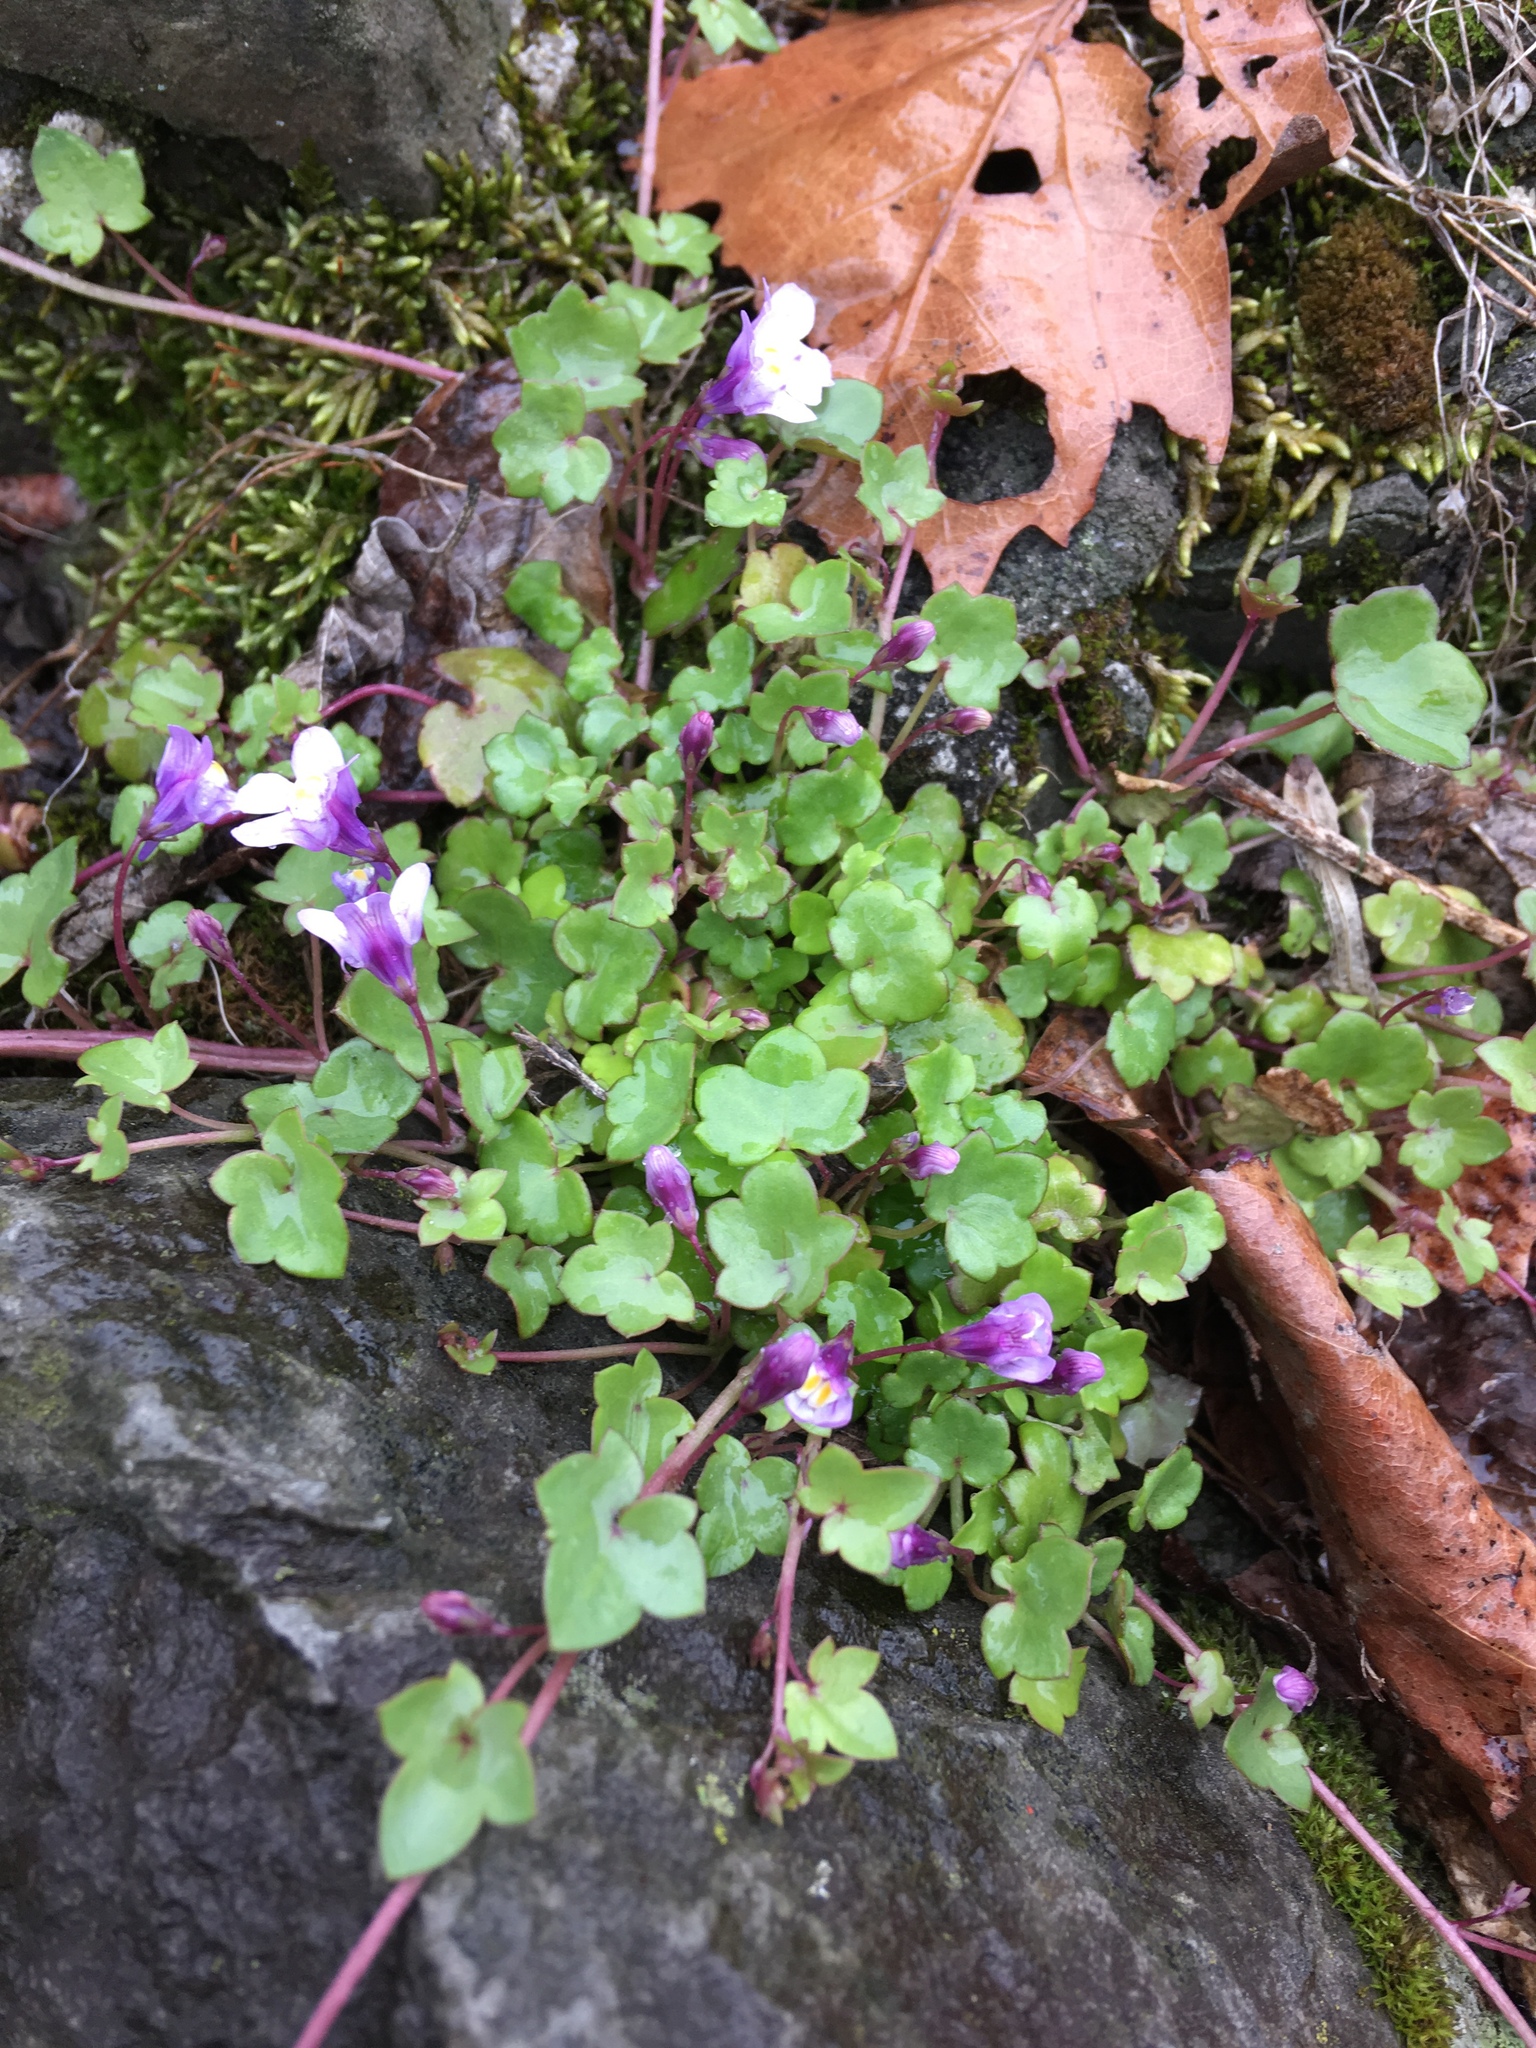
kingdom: Plantae
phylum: Tracheophyta
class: Magnoliopsida
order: Lamiales
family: Plantaginaceae
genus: Cymbalaria
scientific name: Cymbalaria muralis
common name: Ivy-leaved toadflax
